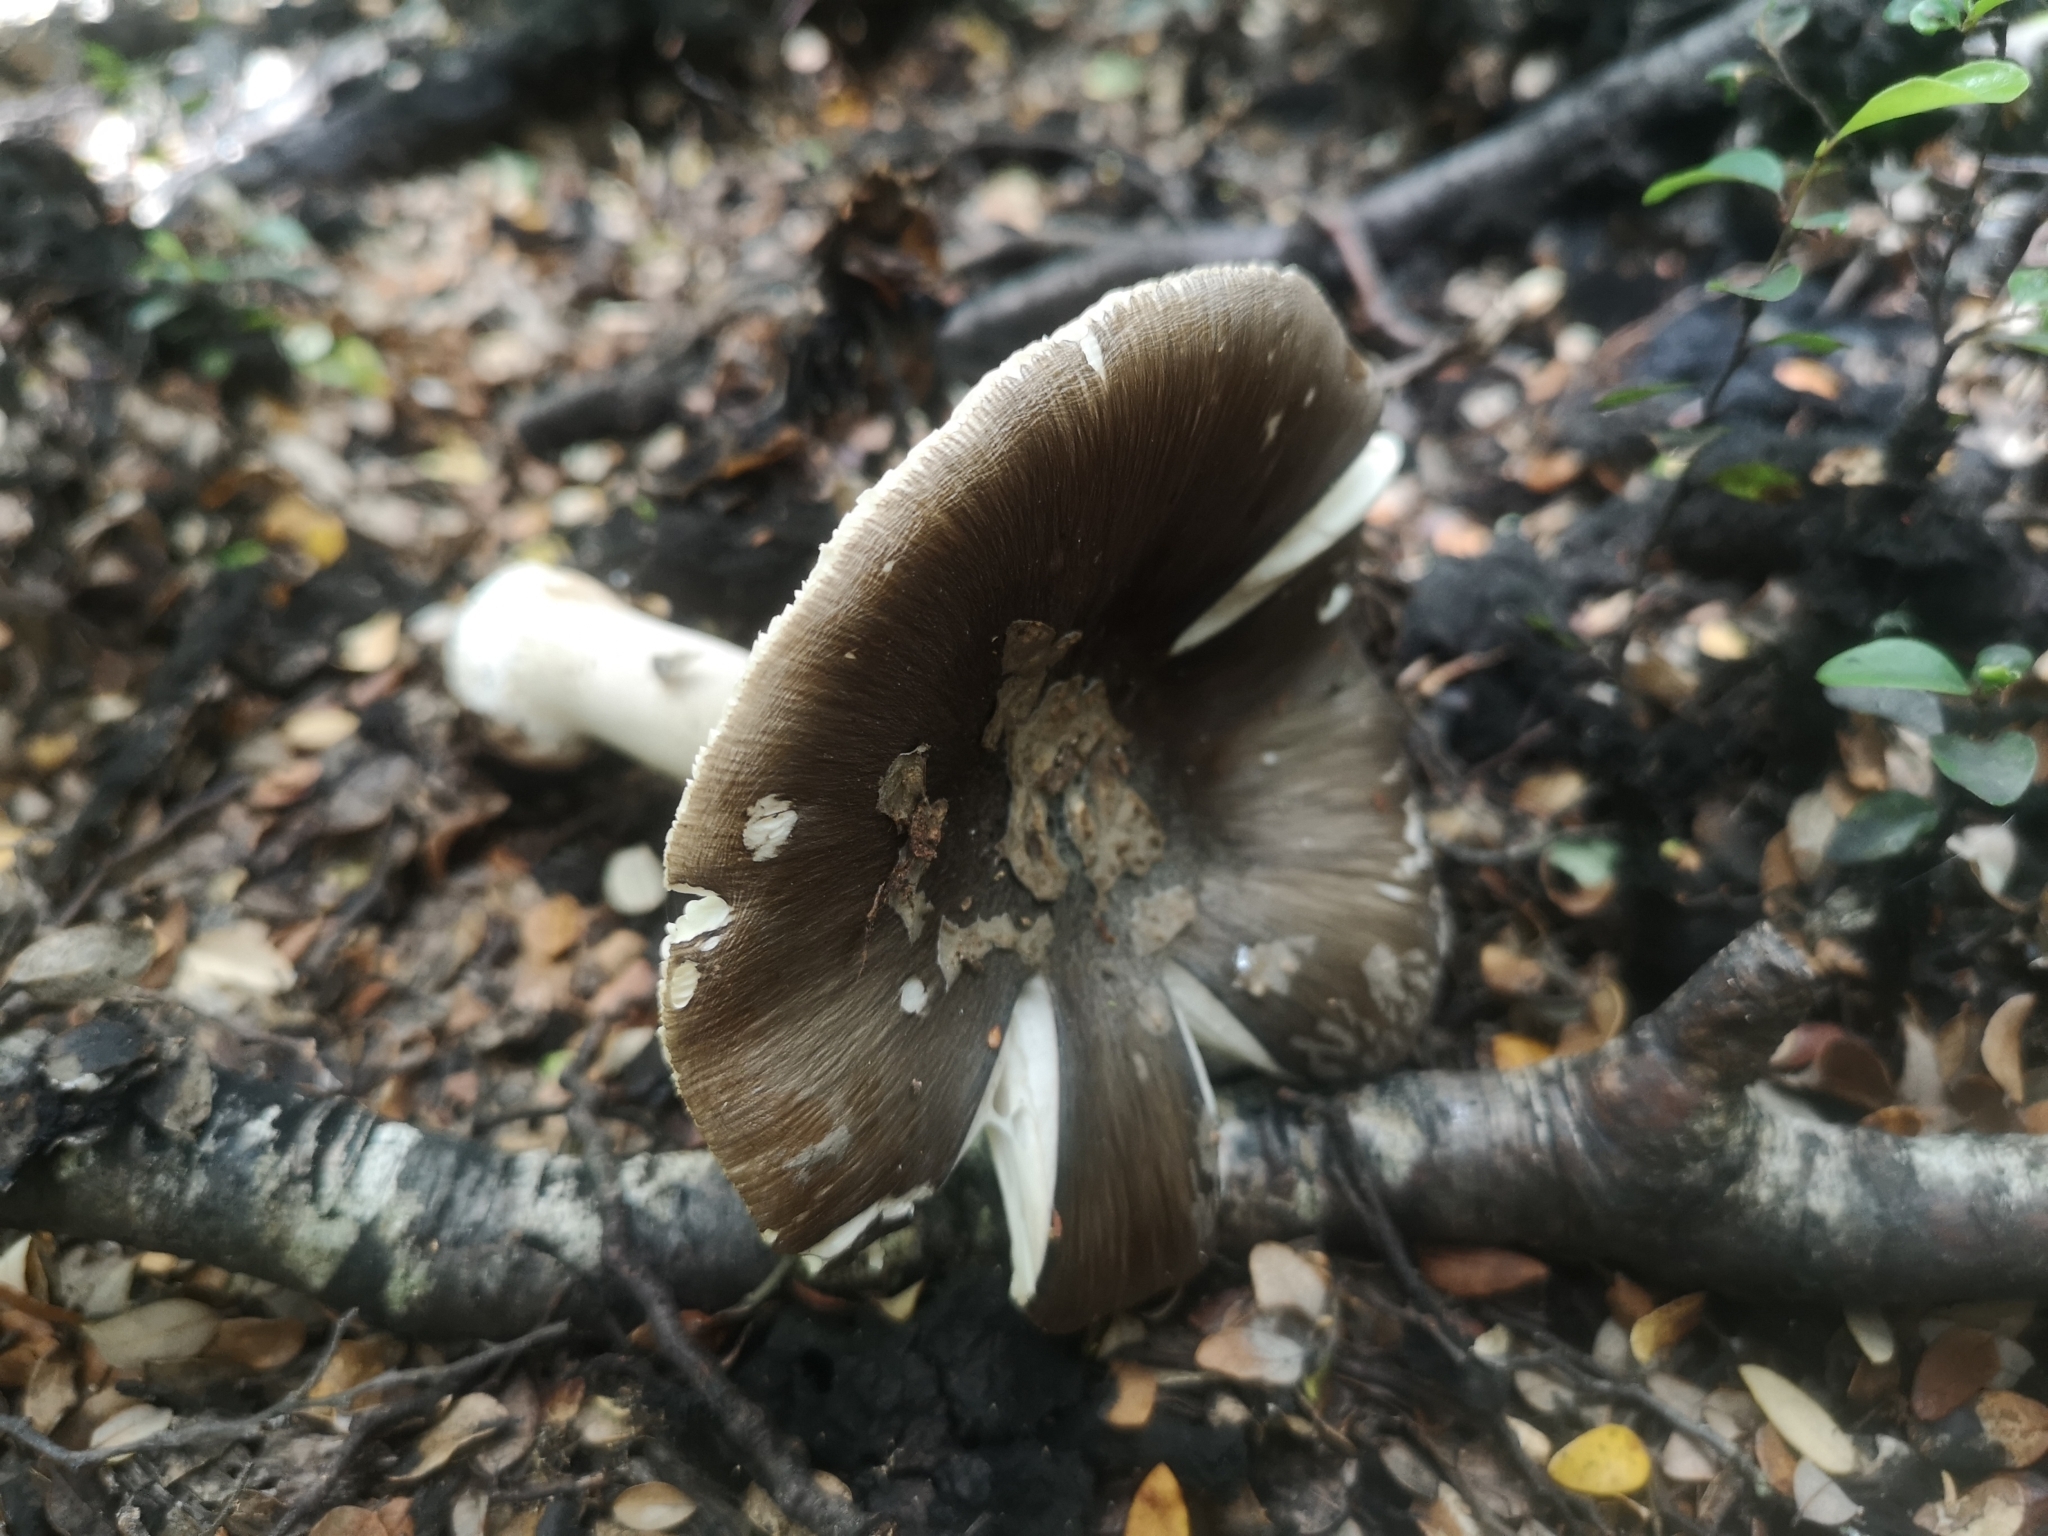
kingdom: Fungi
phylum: Basidiomycota
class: Agaricomycetes
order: Agaricales
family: Amanitaceae
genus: Amanita
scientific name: Amanita nothofagi
